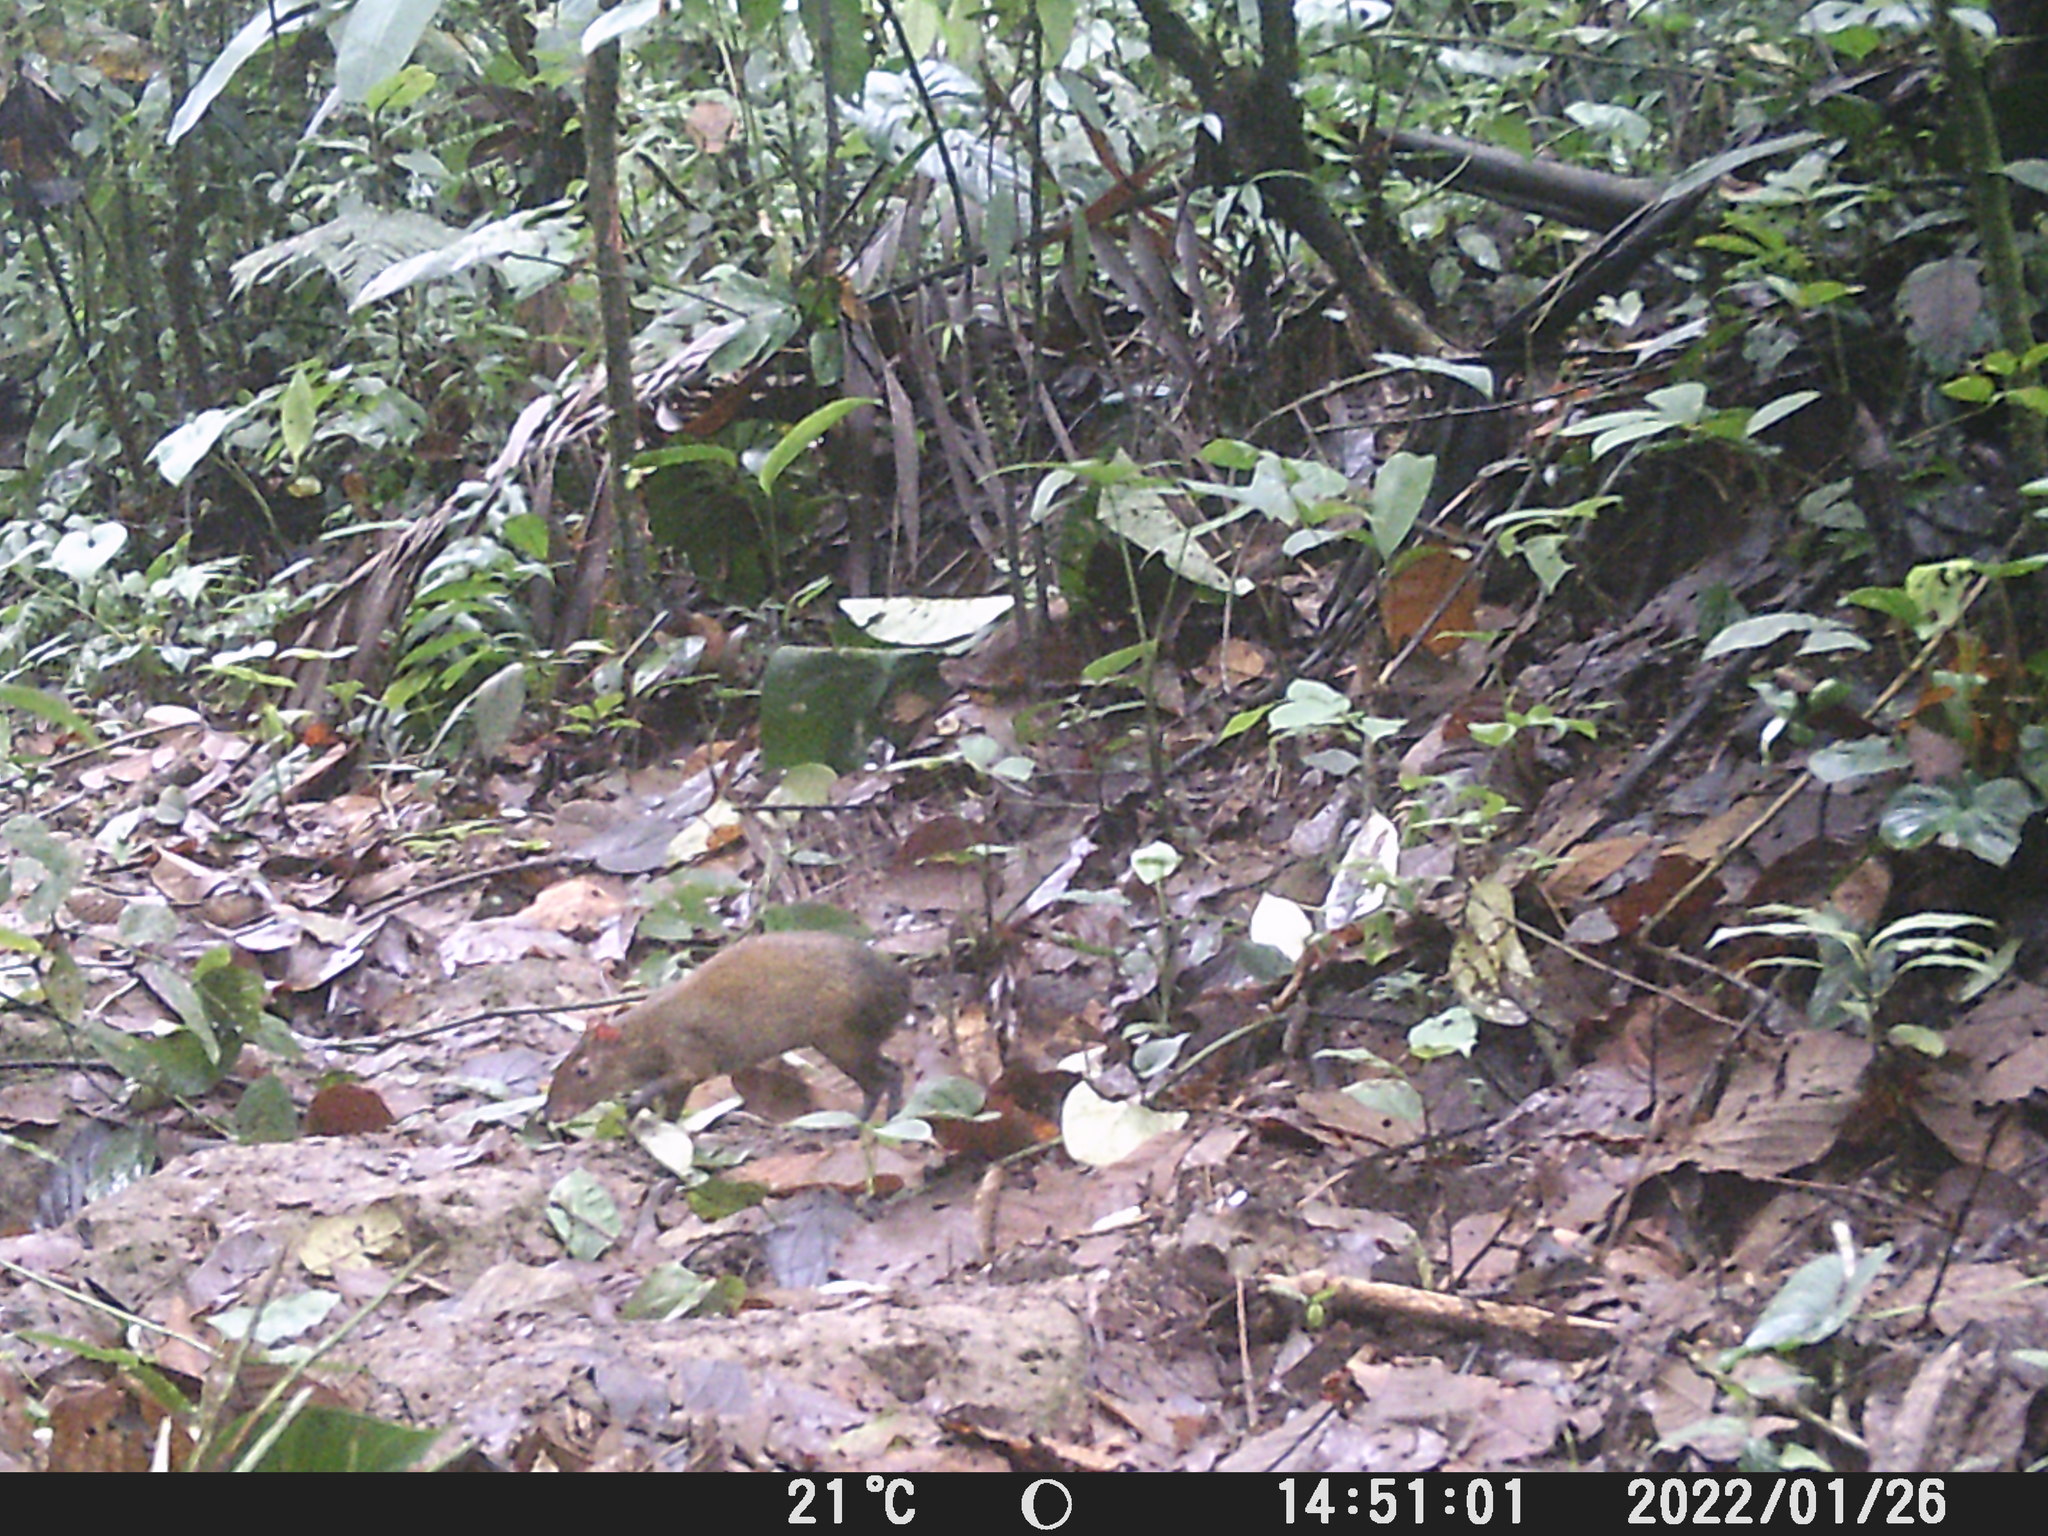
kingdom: Animalia
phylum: Chordata
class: Mammalia
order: Rodentia
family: Dasyproctidae
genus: Dasyprocta
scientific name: Dasyprocta punctata
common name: Central american agouti
